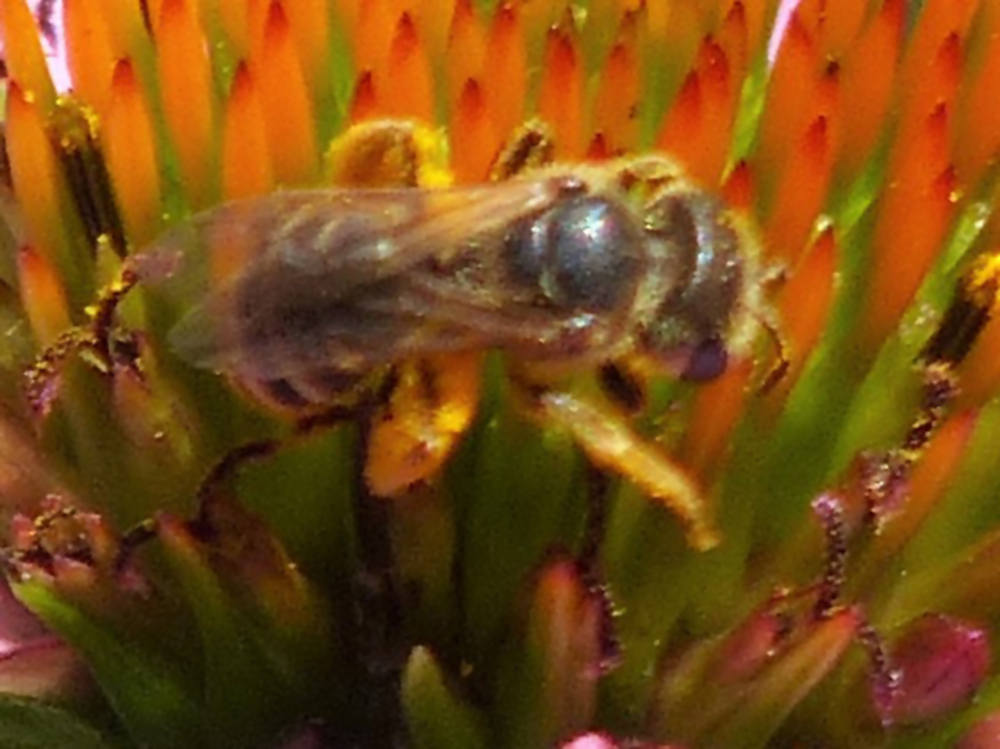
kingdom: Animalia
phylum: Arthropoda
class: Insecta
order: Hymenoptera
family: Halictidae
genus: Halictus
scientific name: Halictus ligatus
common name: Ligated furrow bee
